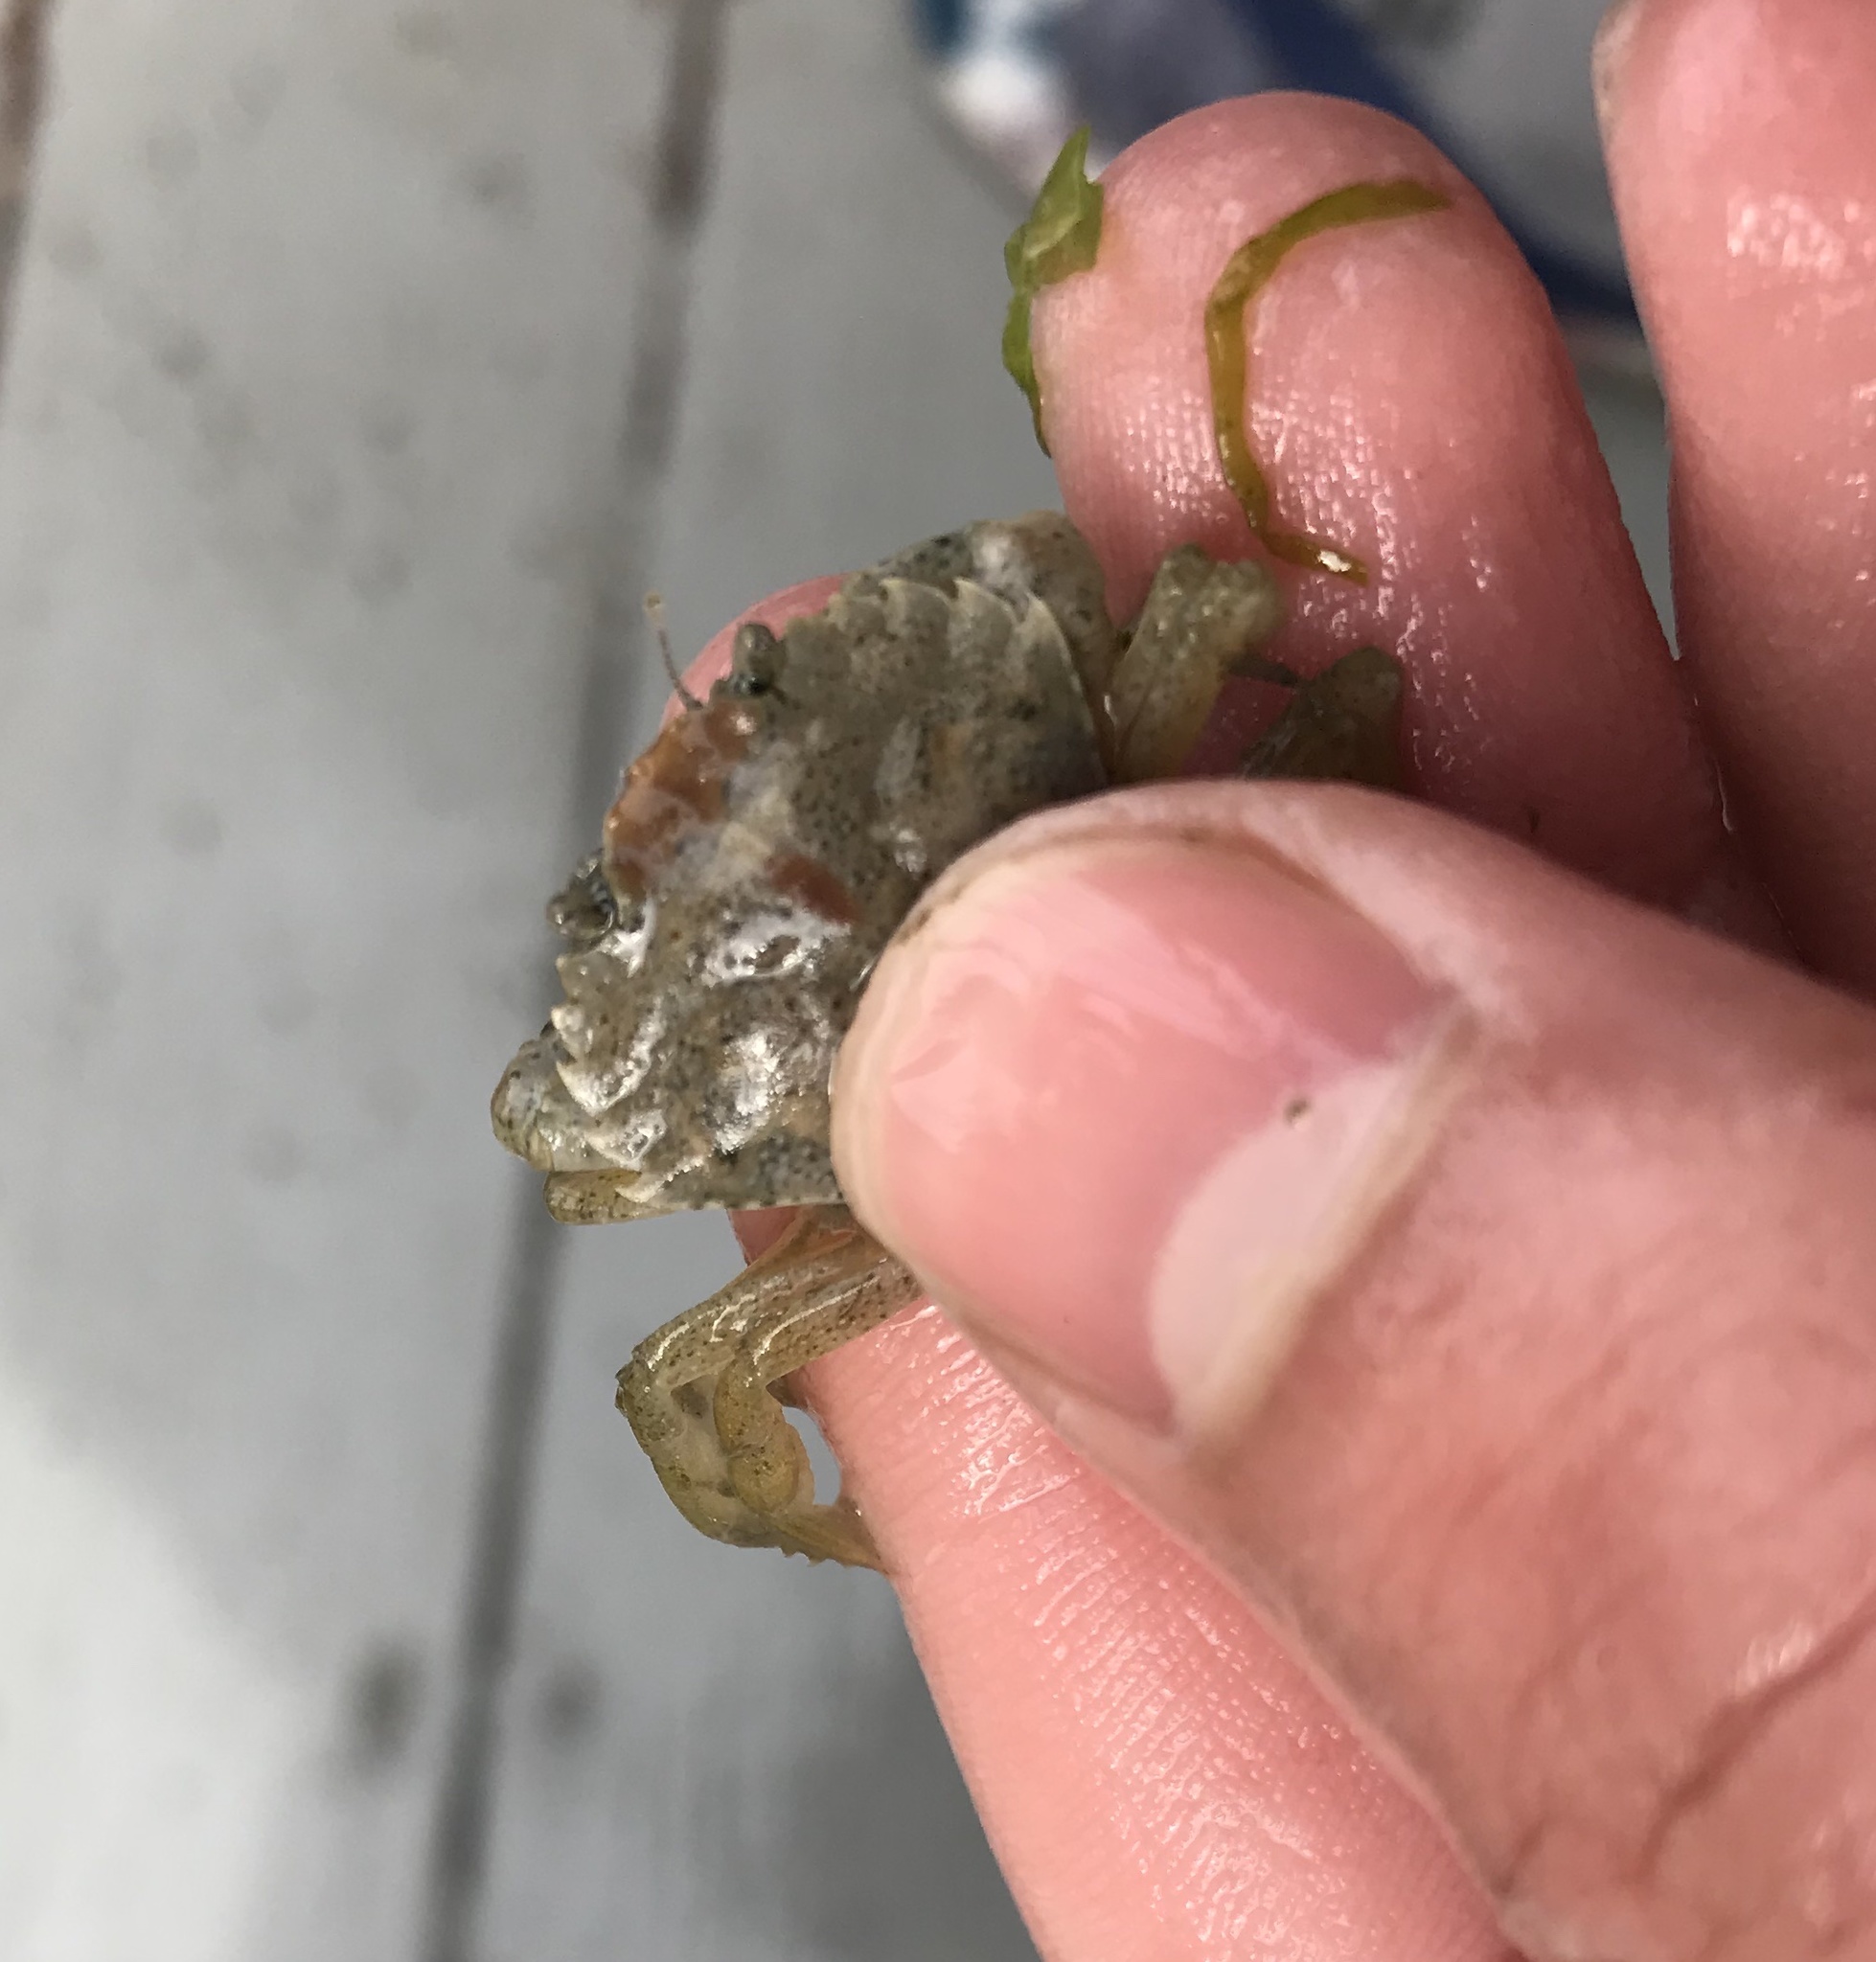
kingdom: Animalia
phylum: Arthropoda
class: Malacostraca
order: Decapoda
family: Carcinidae
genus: Carcinus
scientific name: Carcinus maenas
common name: European green crab
